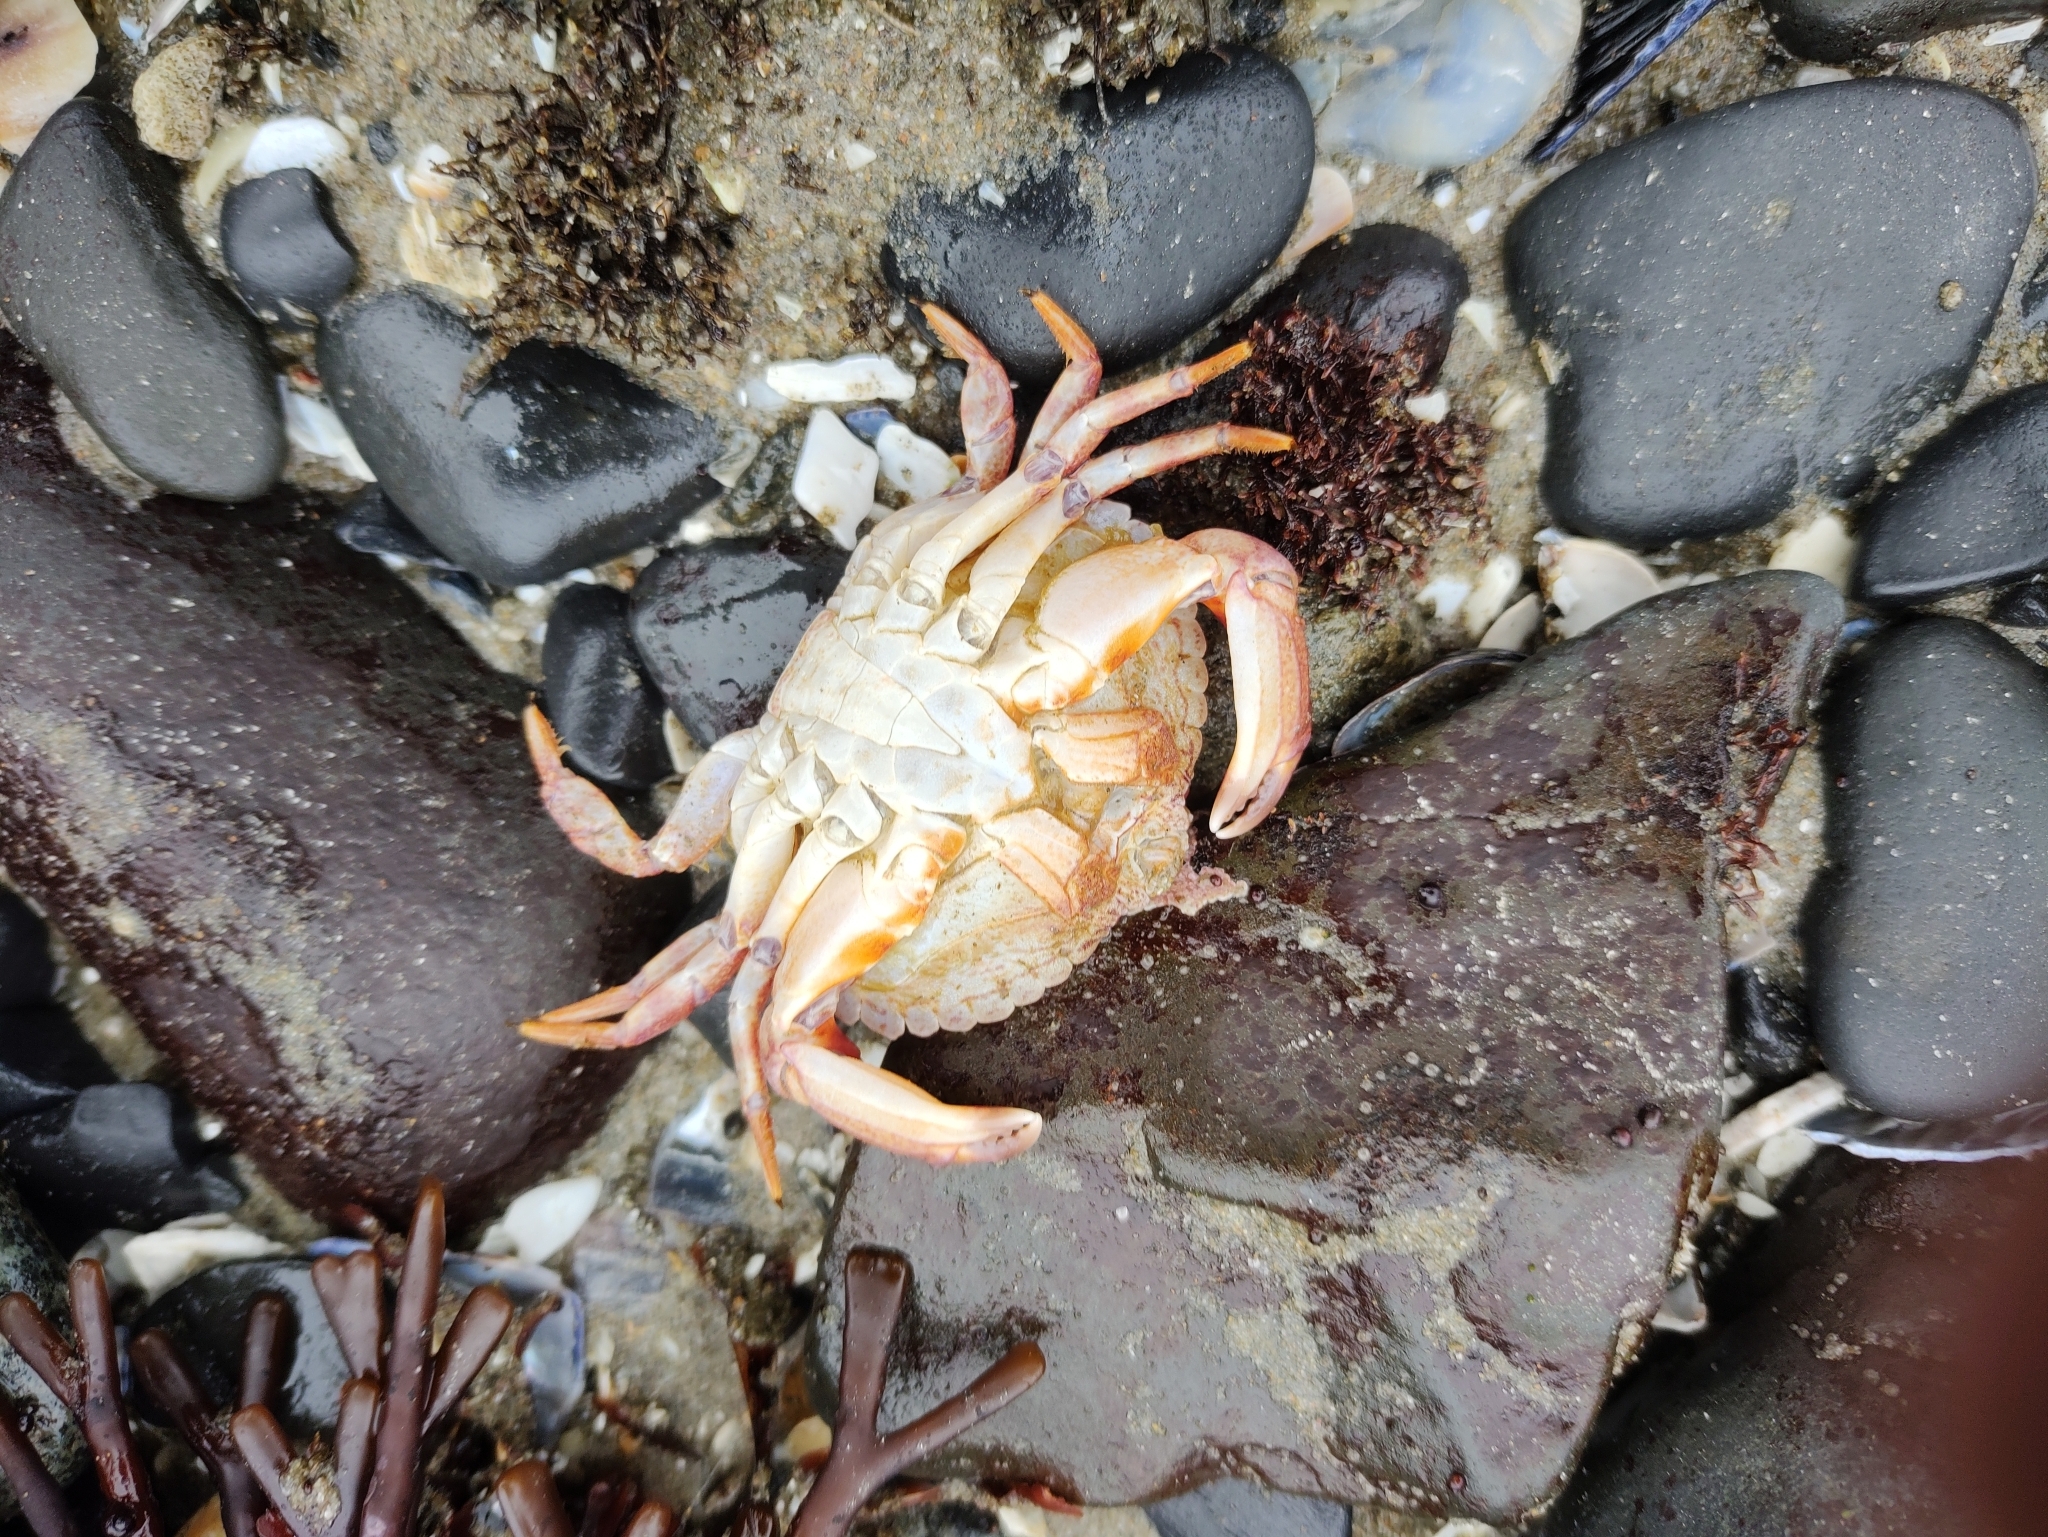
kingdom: Animalia
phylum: Arthropoda
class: Malacostraca
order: Decapoda
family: Cancridae
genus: Cancer
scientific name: Cancer productus
